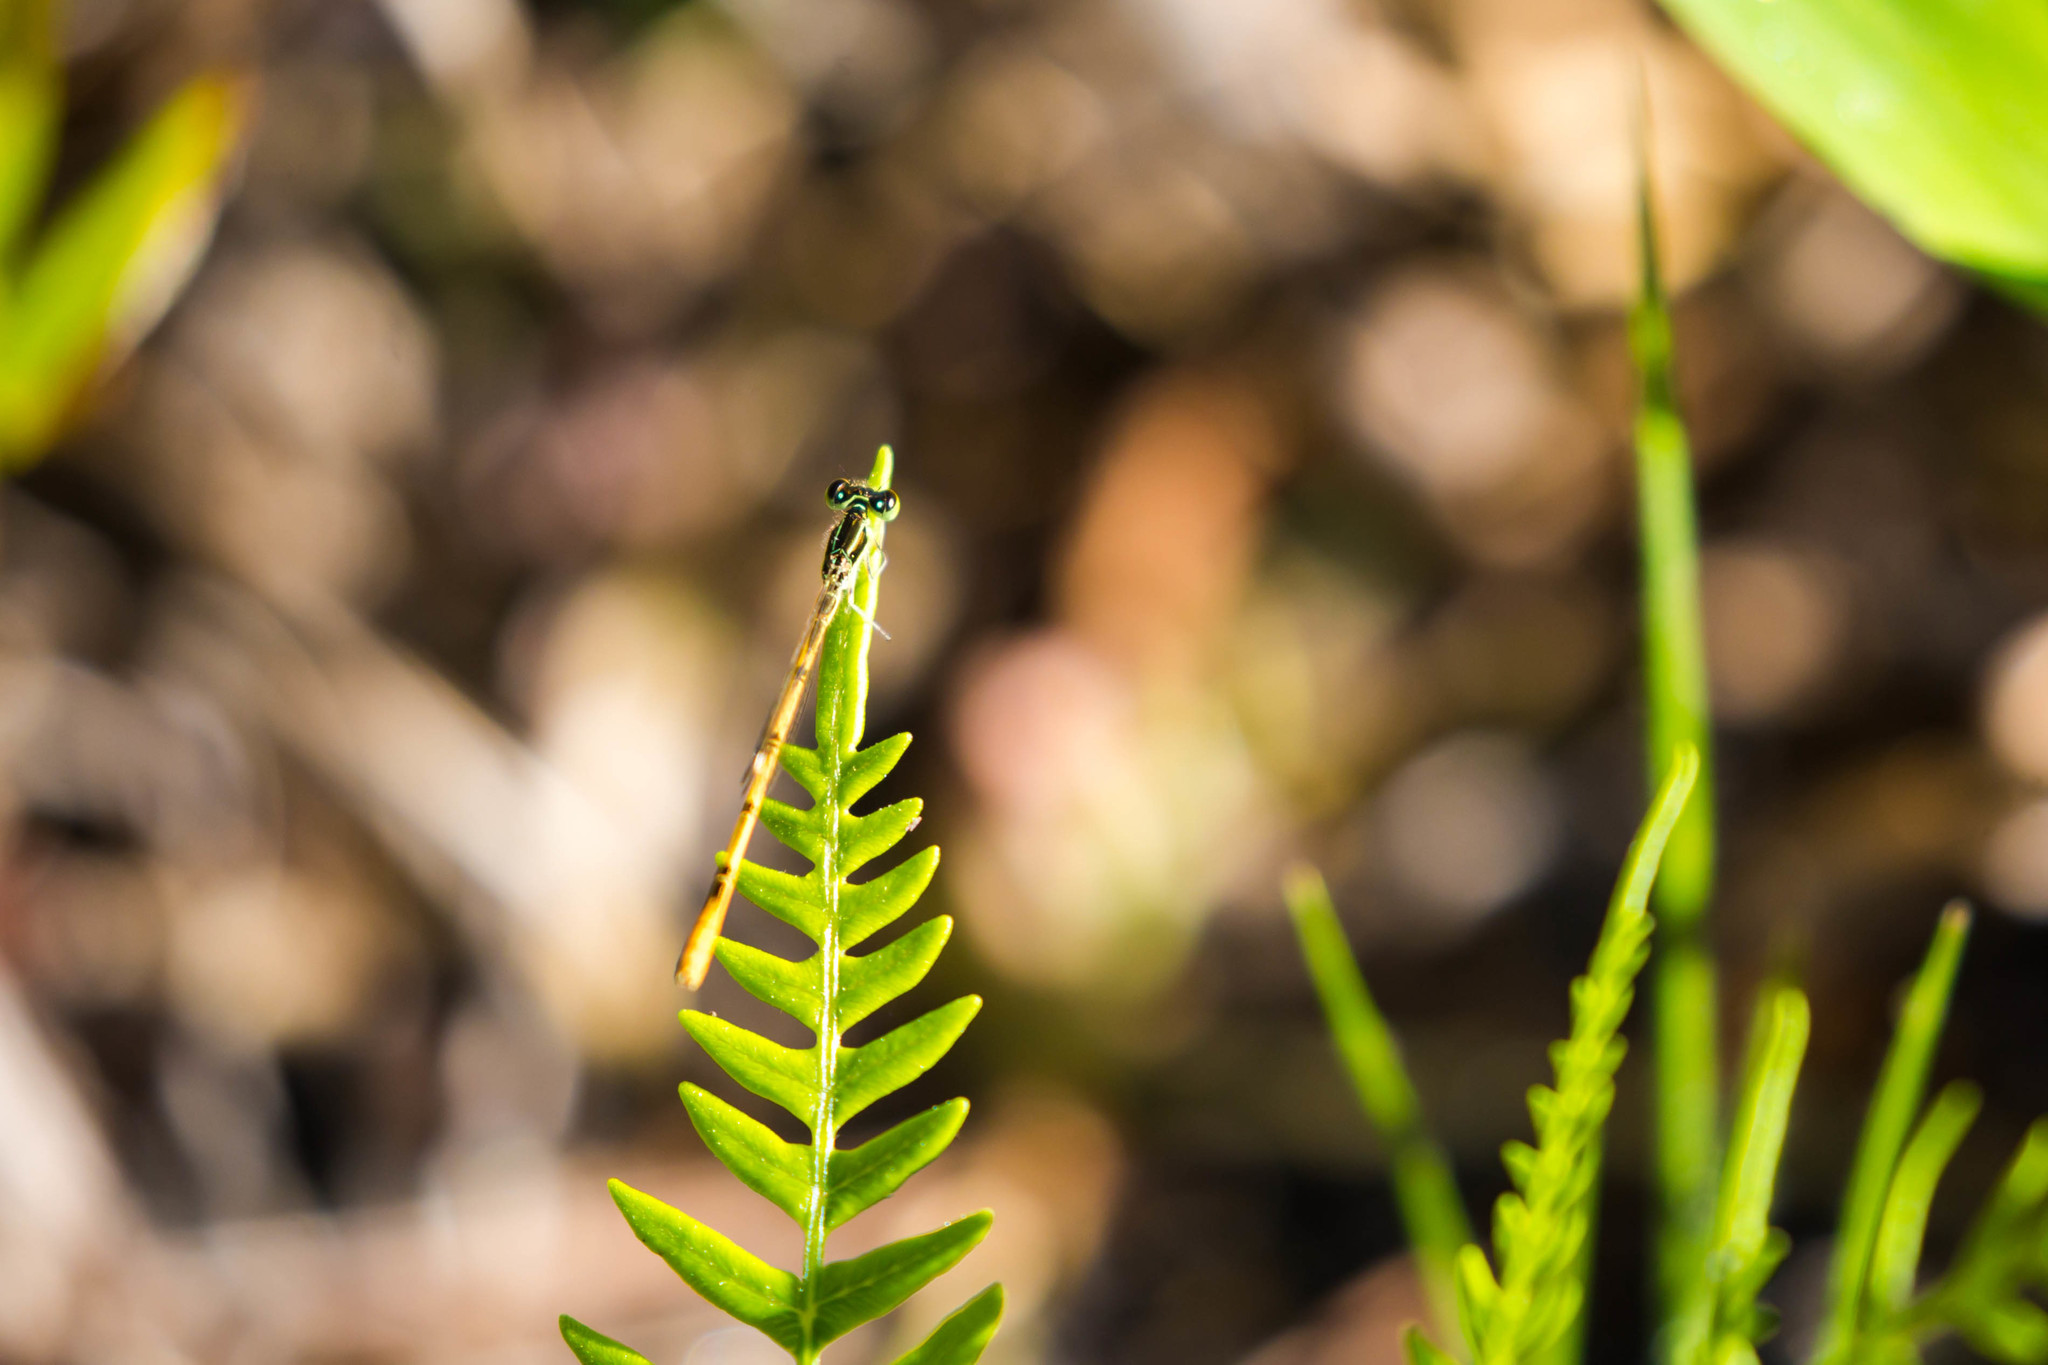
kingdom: Animalia
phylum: Arthropoda
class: Insecta
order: Odonata
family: Coenagrionidae
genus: Ischnura
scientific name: Ischnura hastata
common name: Citrine forktail
